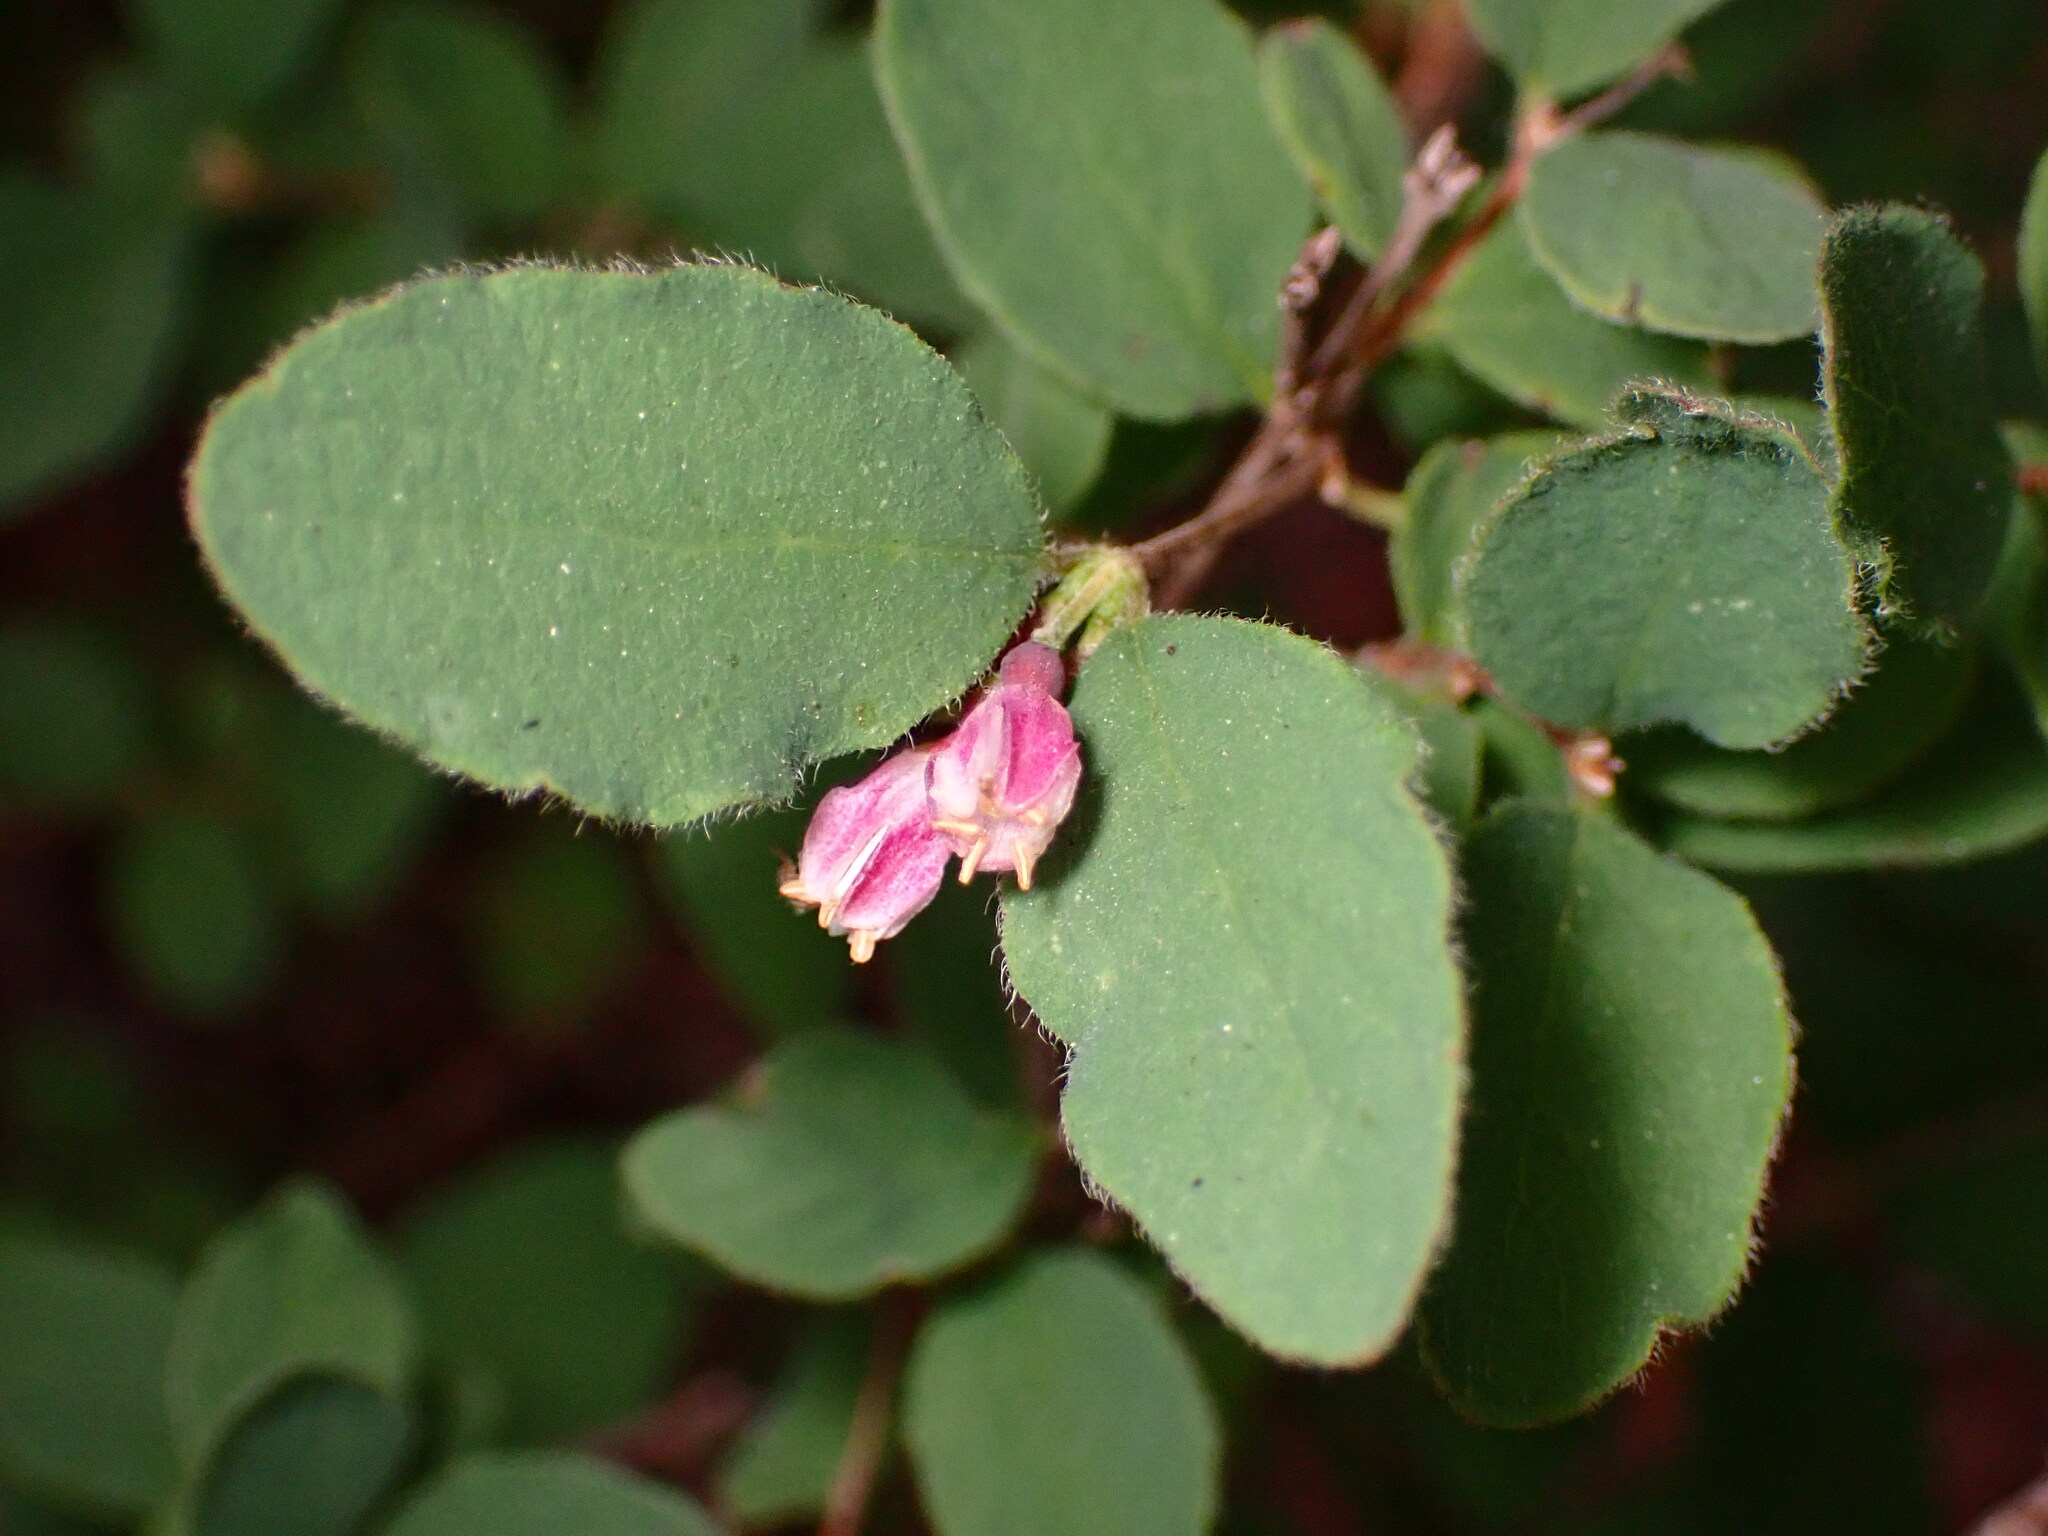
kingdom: Plantae
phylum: Tracheophyta
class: Magnoliopsida
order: Dipsacales
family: Caprifoliaceae
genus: Symphoricarpos
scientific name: Symphoricarpos mollis
